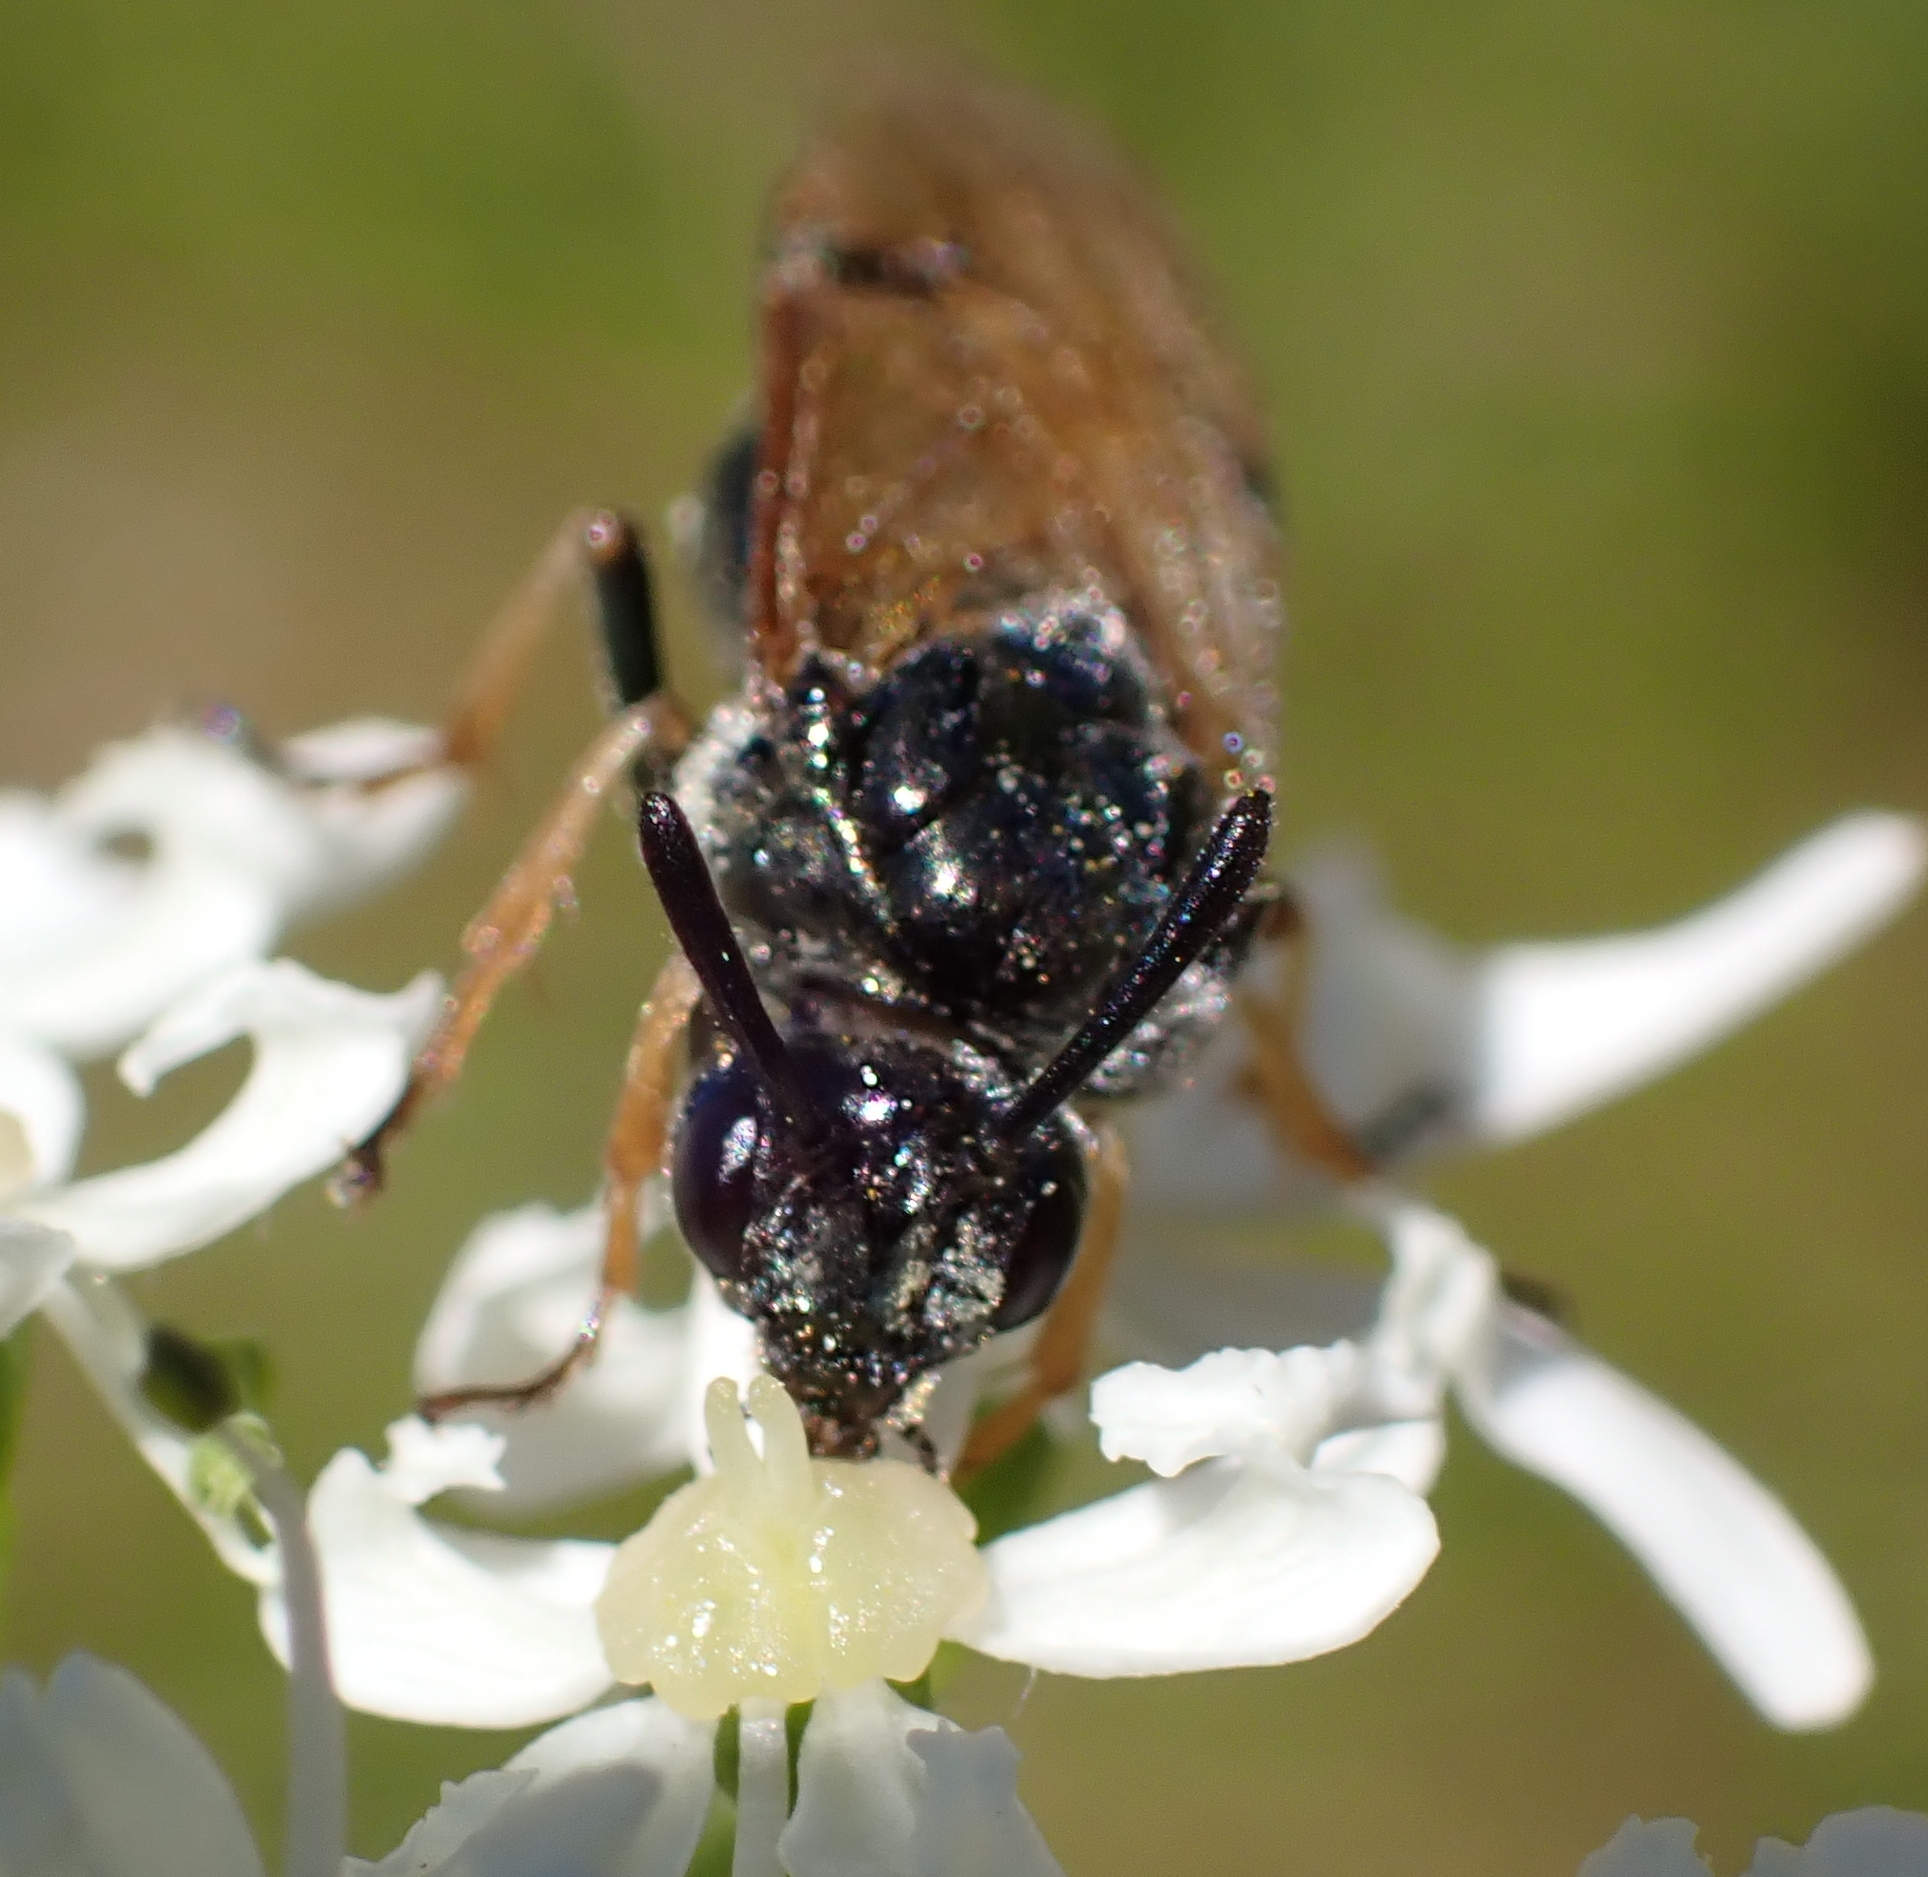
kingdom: Animalia
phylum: Arthropoda
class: Insecta
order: Hymenoptera
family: Argidae
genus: Arge
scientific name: Arge ustulata
